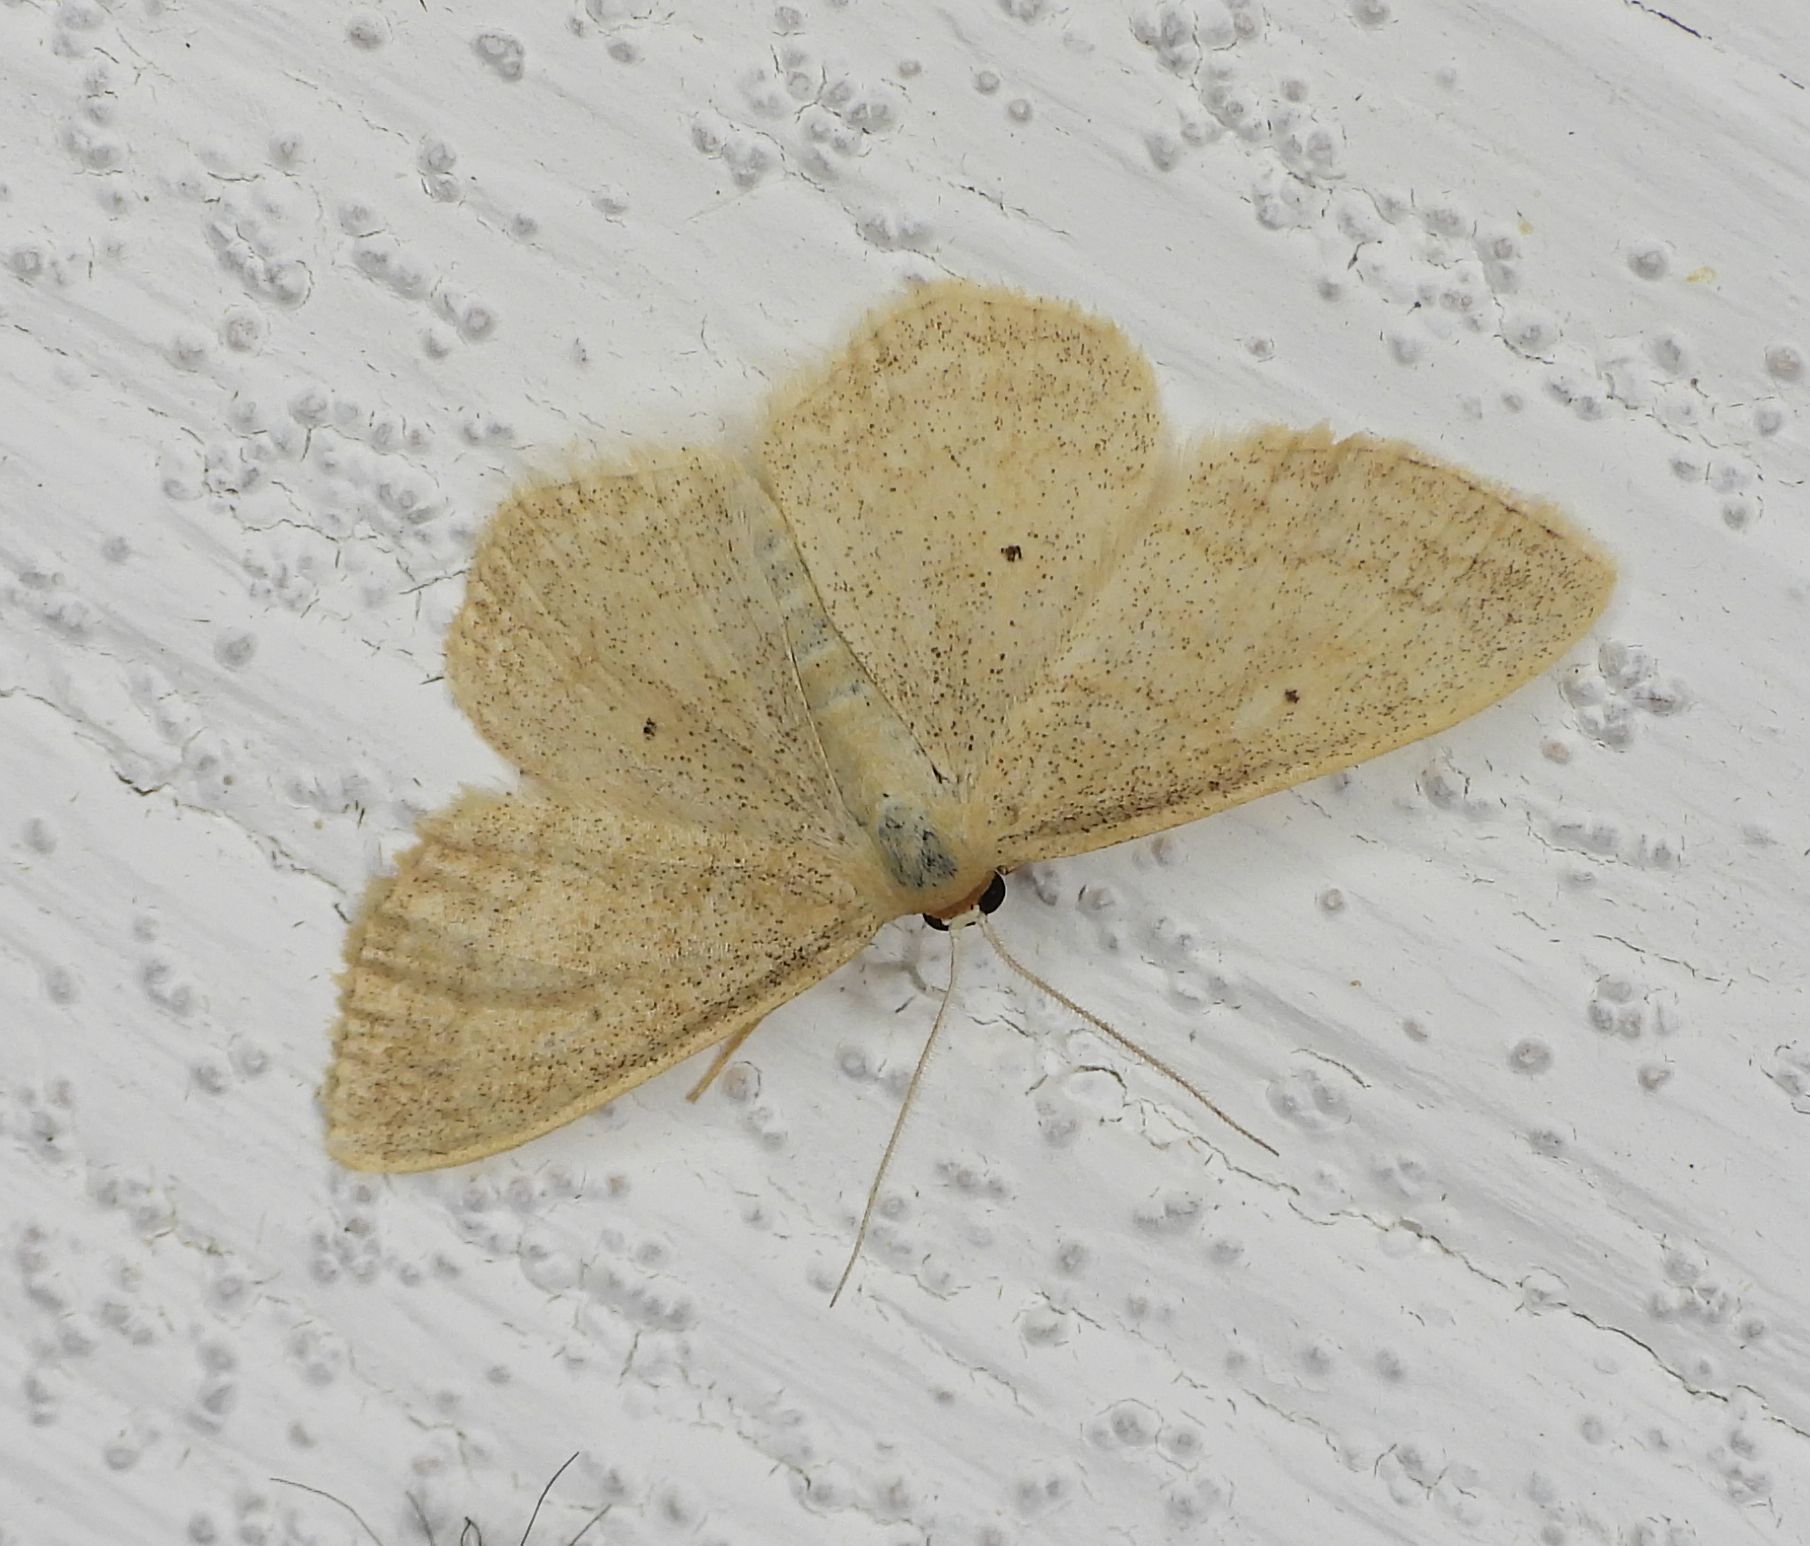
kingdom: Animalia
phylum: Arthropoda
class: Insecta
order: Lepidoptera
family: Geometridae
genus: Scopula
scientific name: Scopula inductata
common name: Soft-lined wave
